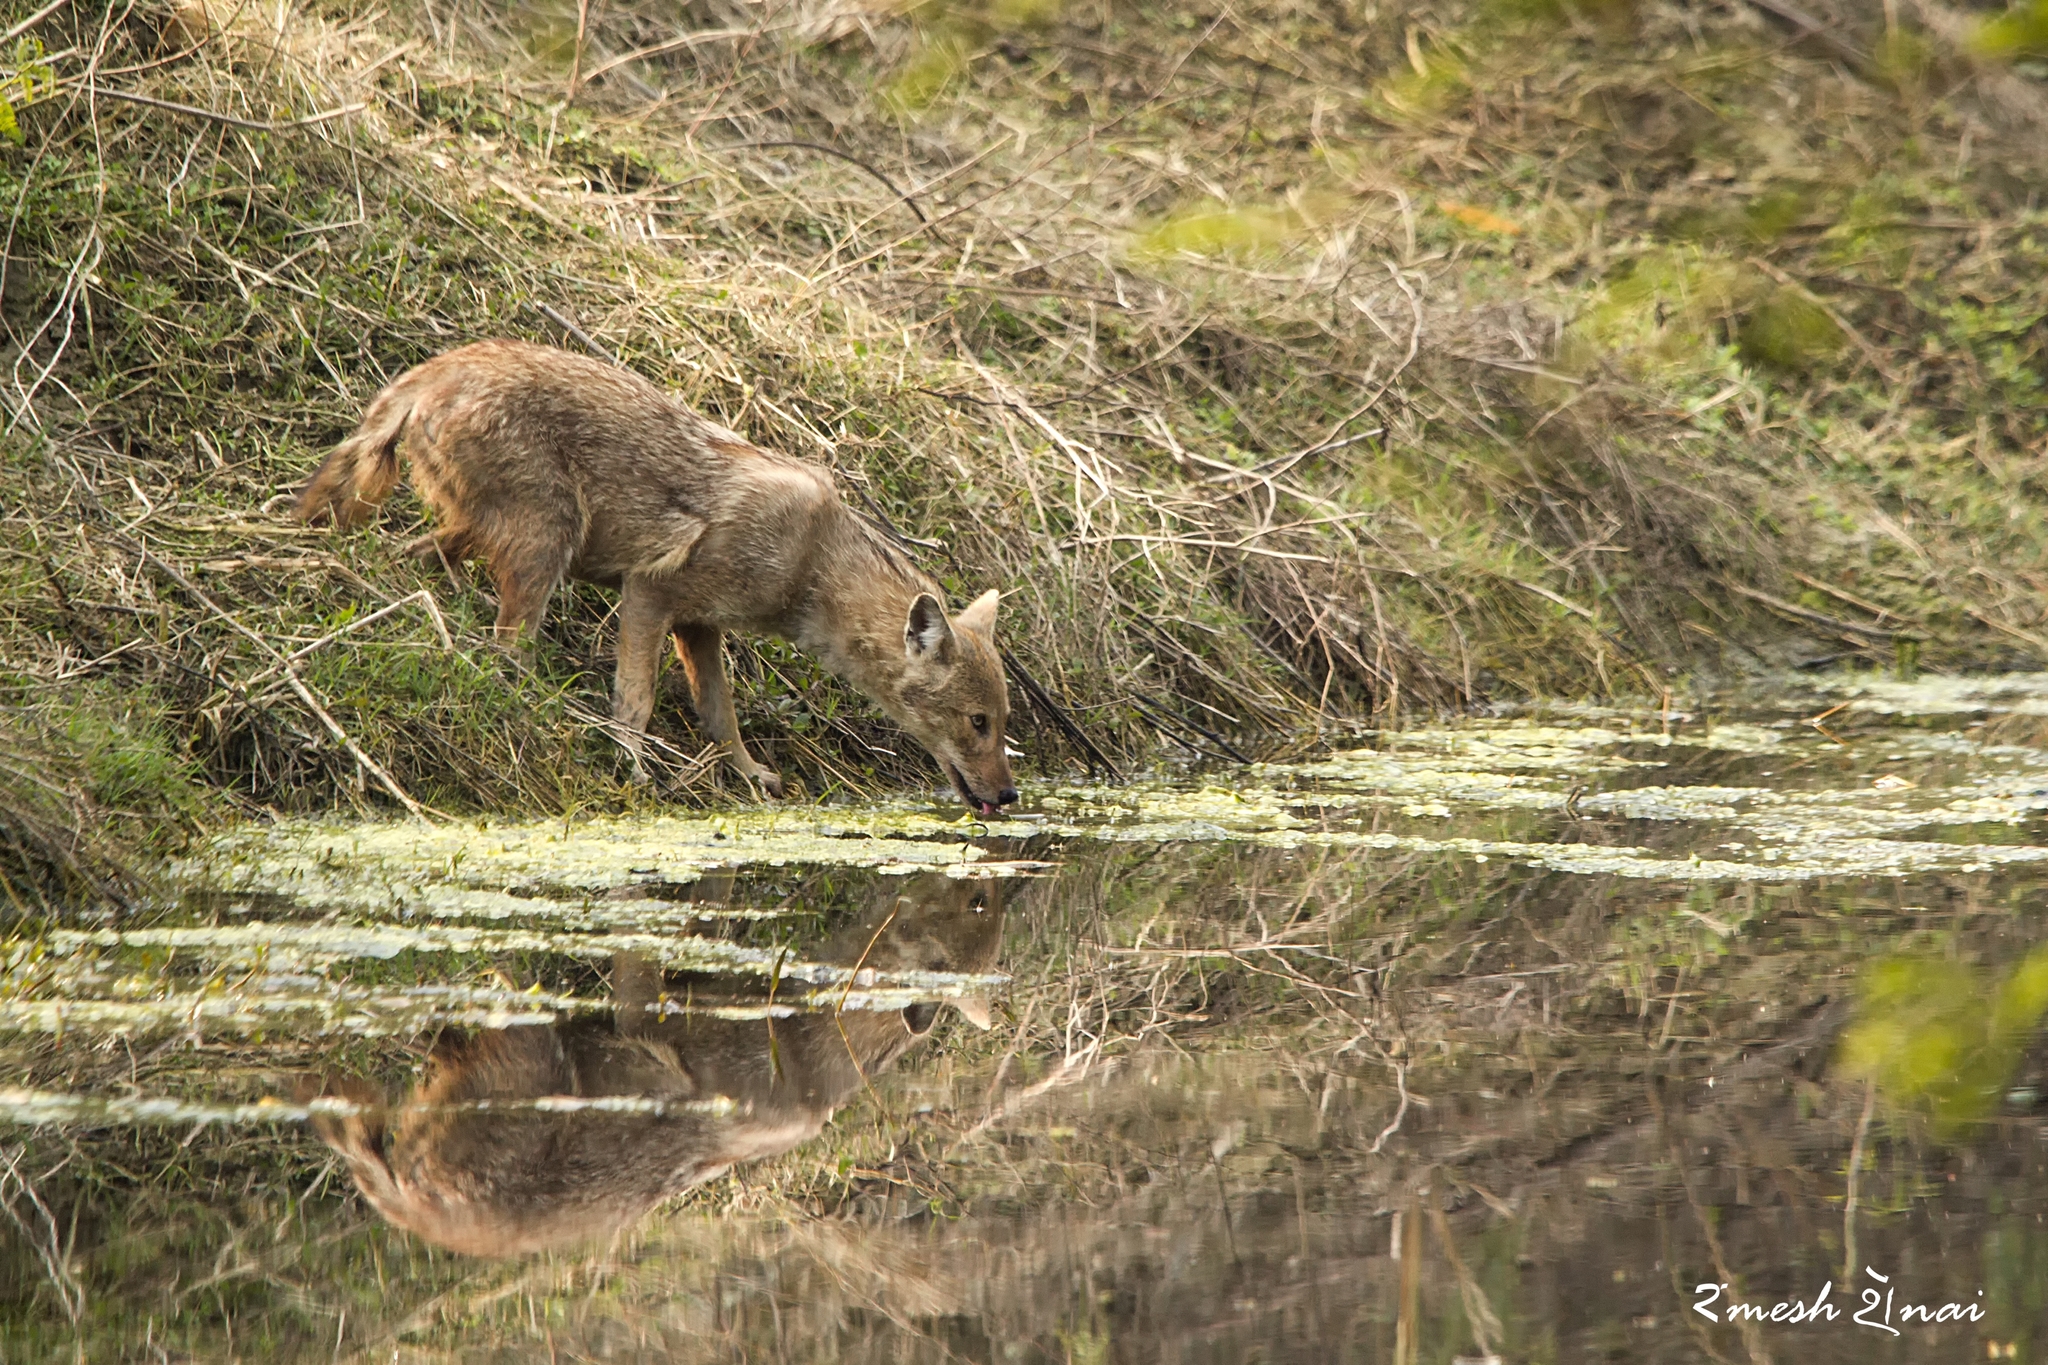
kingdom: Animalia
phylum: Chordata
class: Mammalia
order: Carnivora
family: Canidae
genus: Canis
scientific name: Canis aureus
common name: Golden jackal
